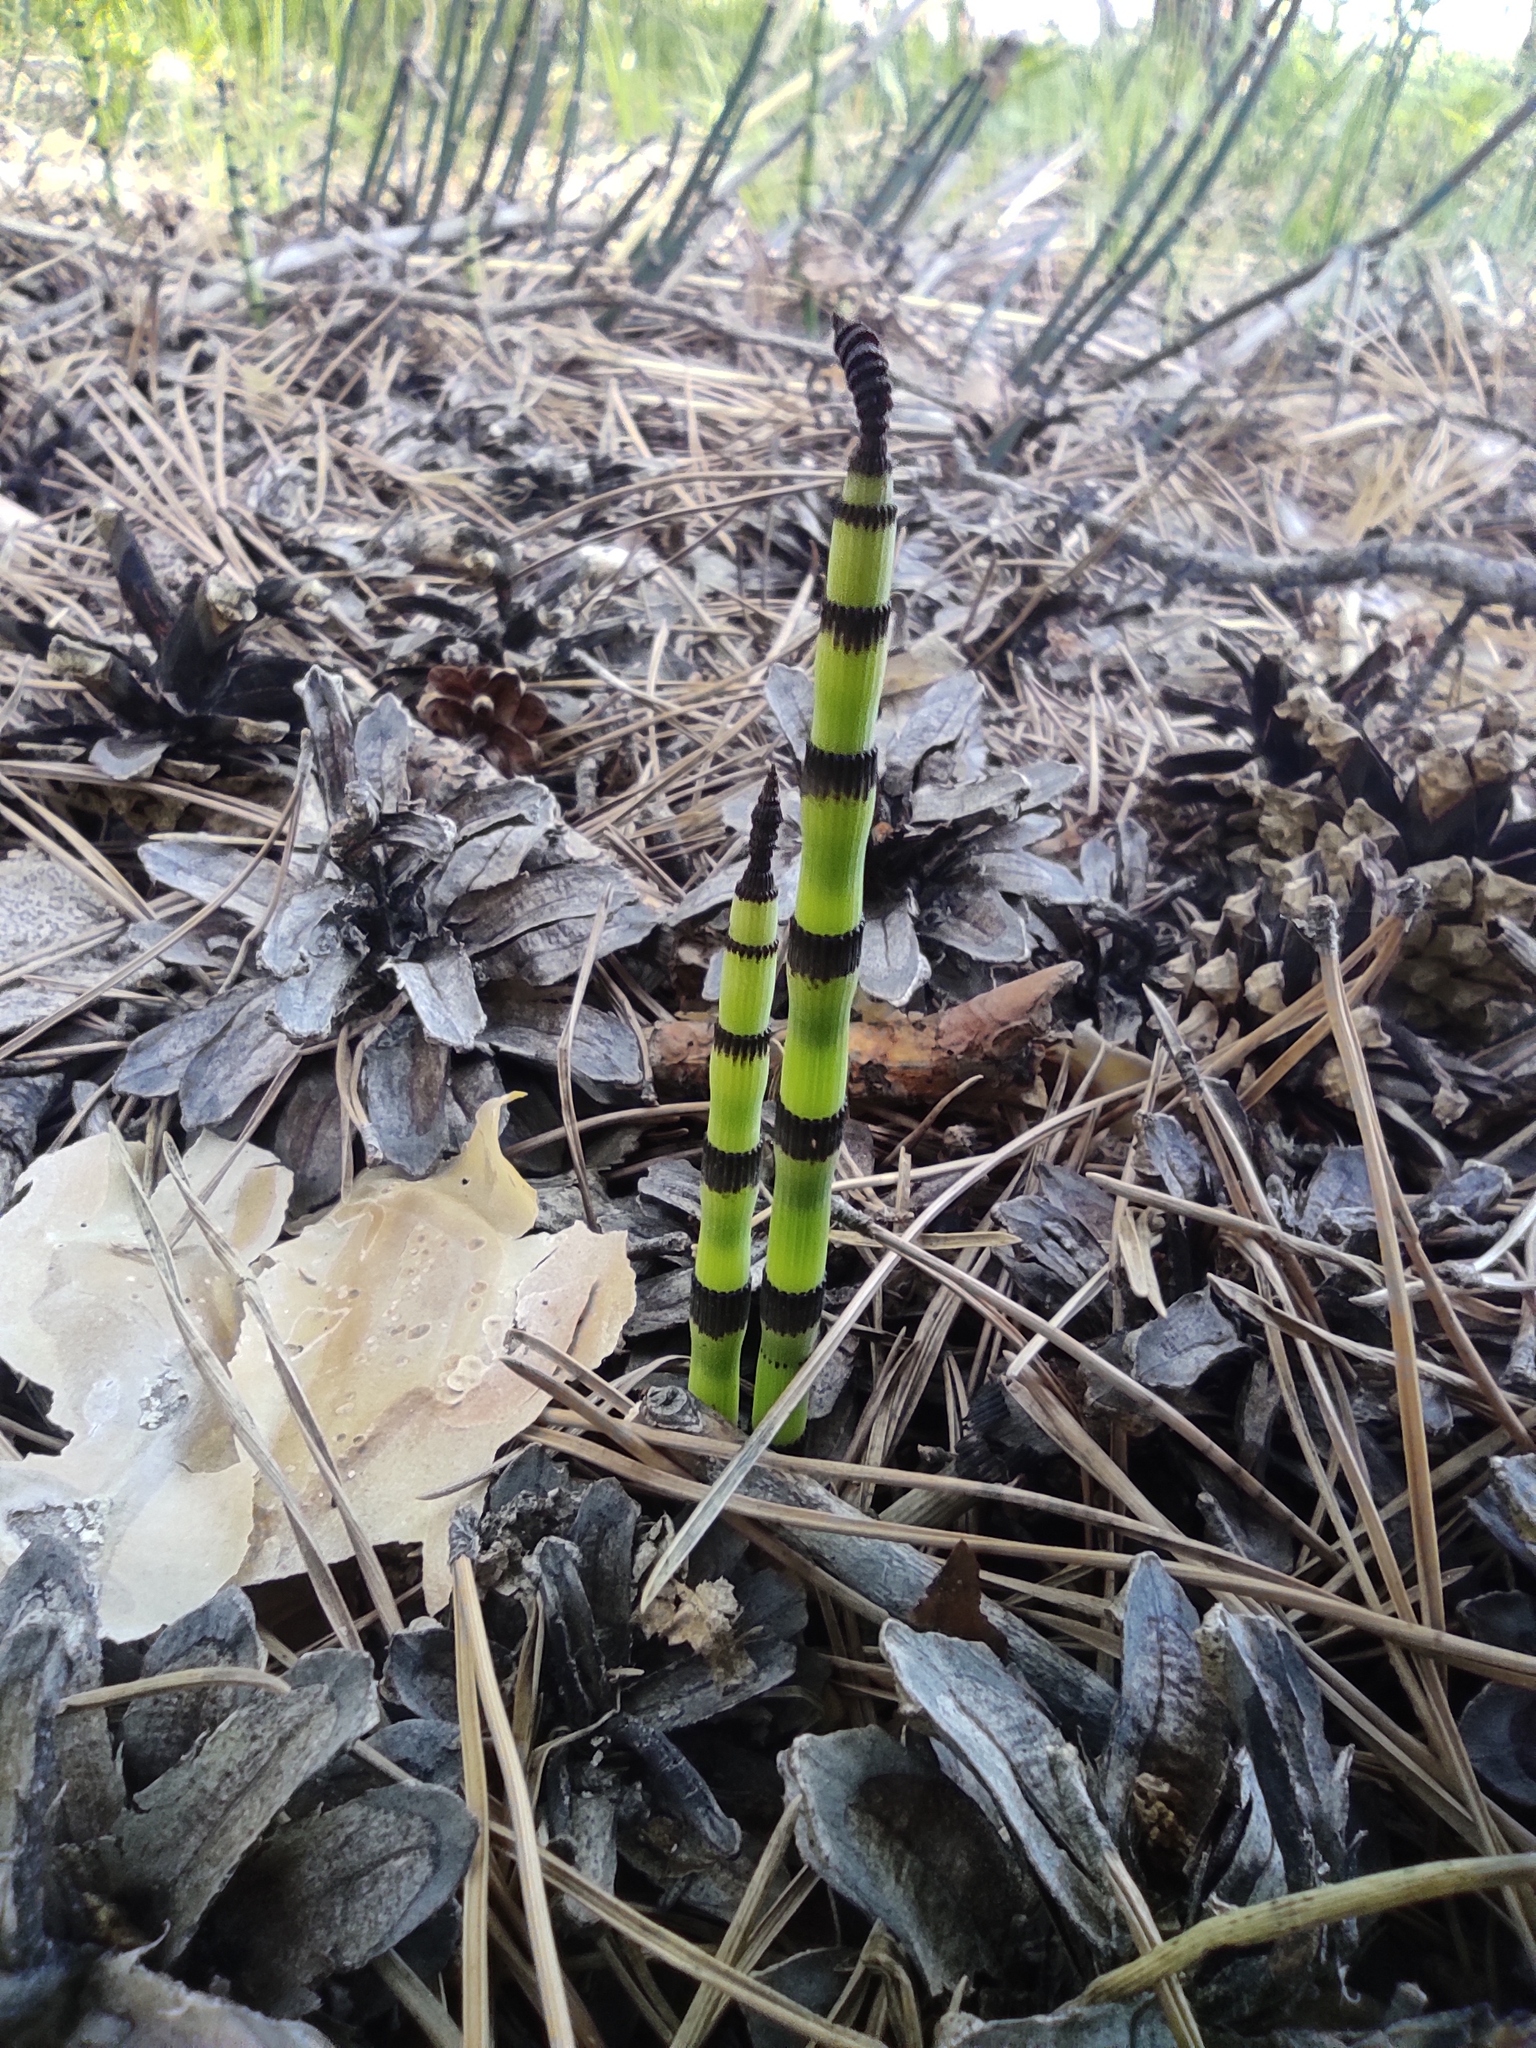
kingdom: Plantae
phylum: Tracheophyta
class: Polypodiopsida
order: Equisetales
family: Equisetaceae
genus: Equisetum
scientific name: Equisetum hyemale
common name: Rough horsetail
